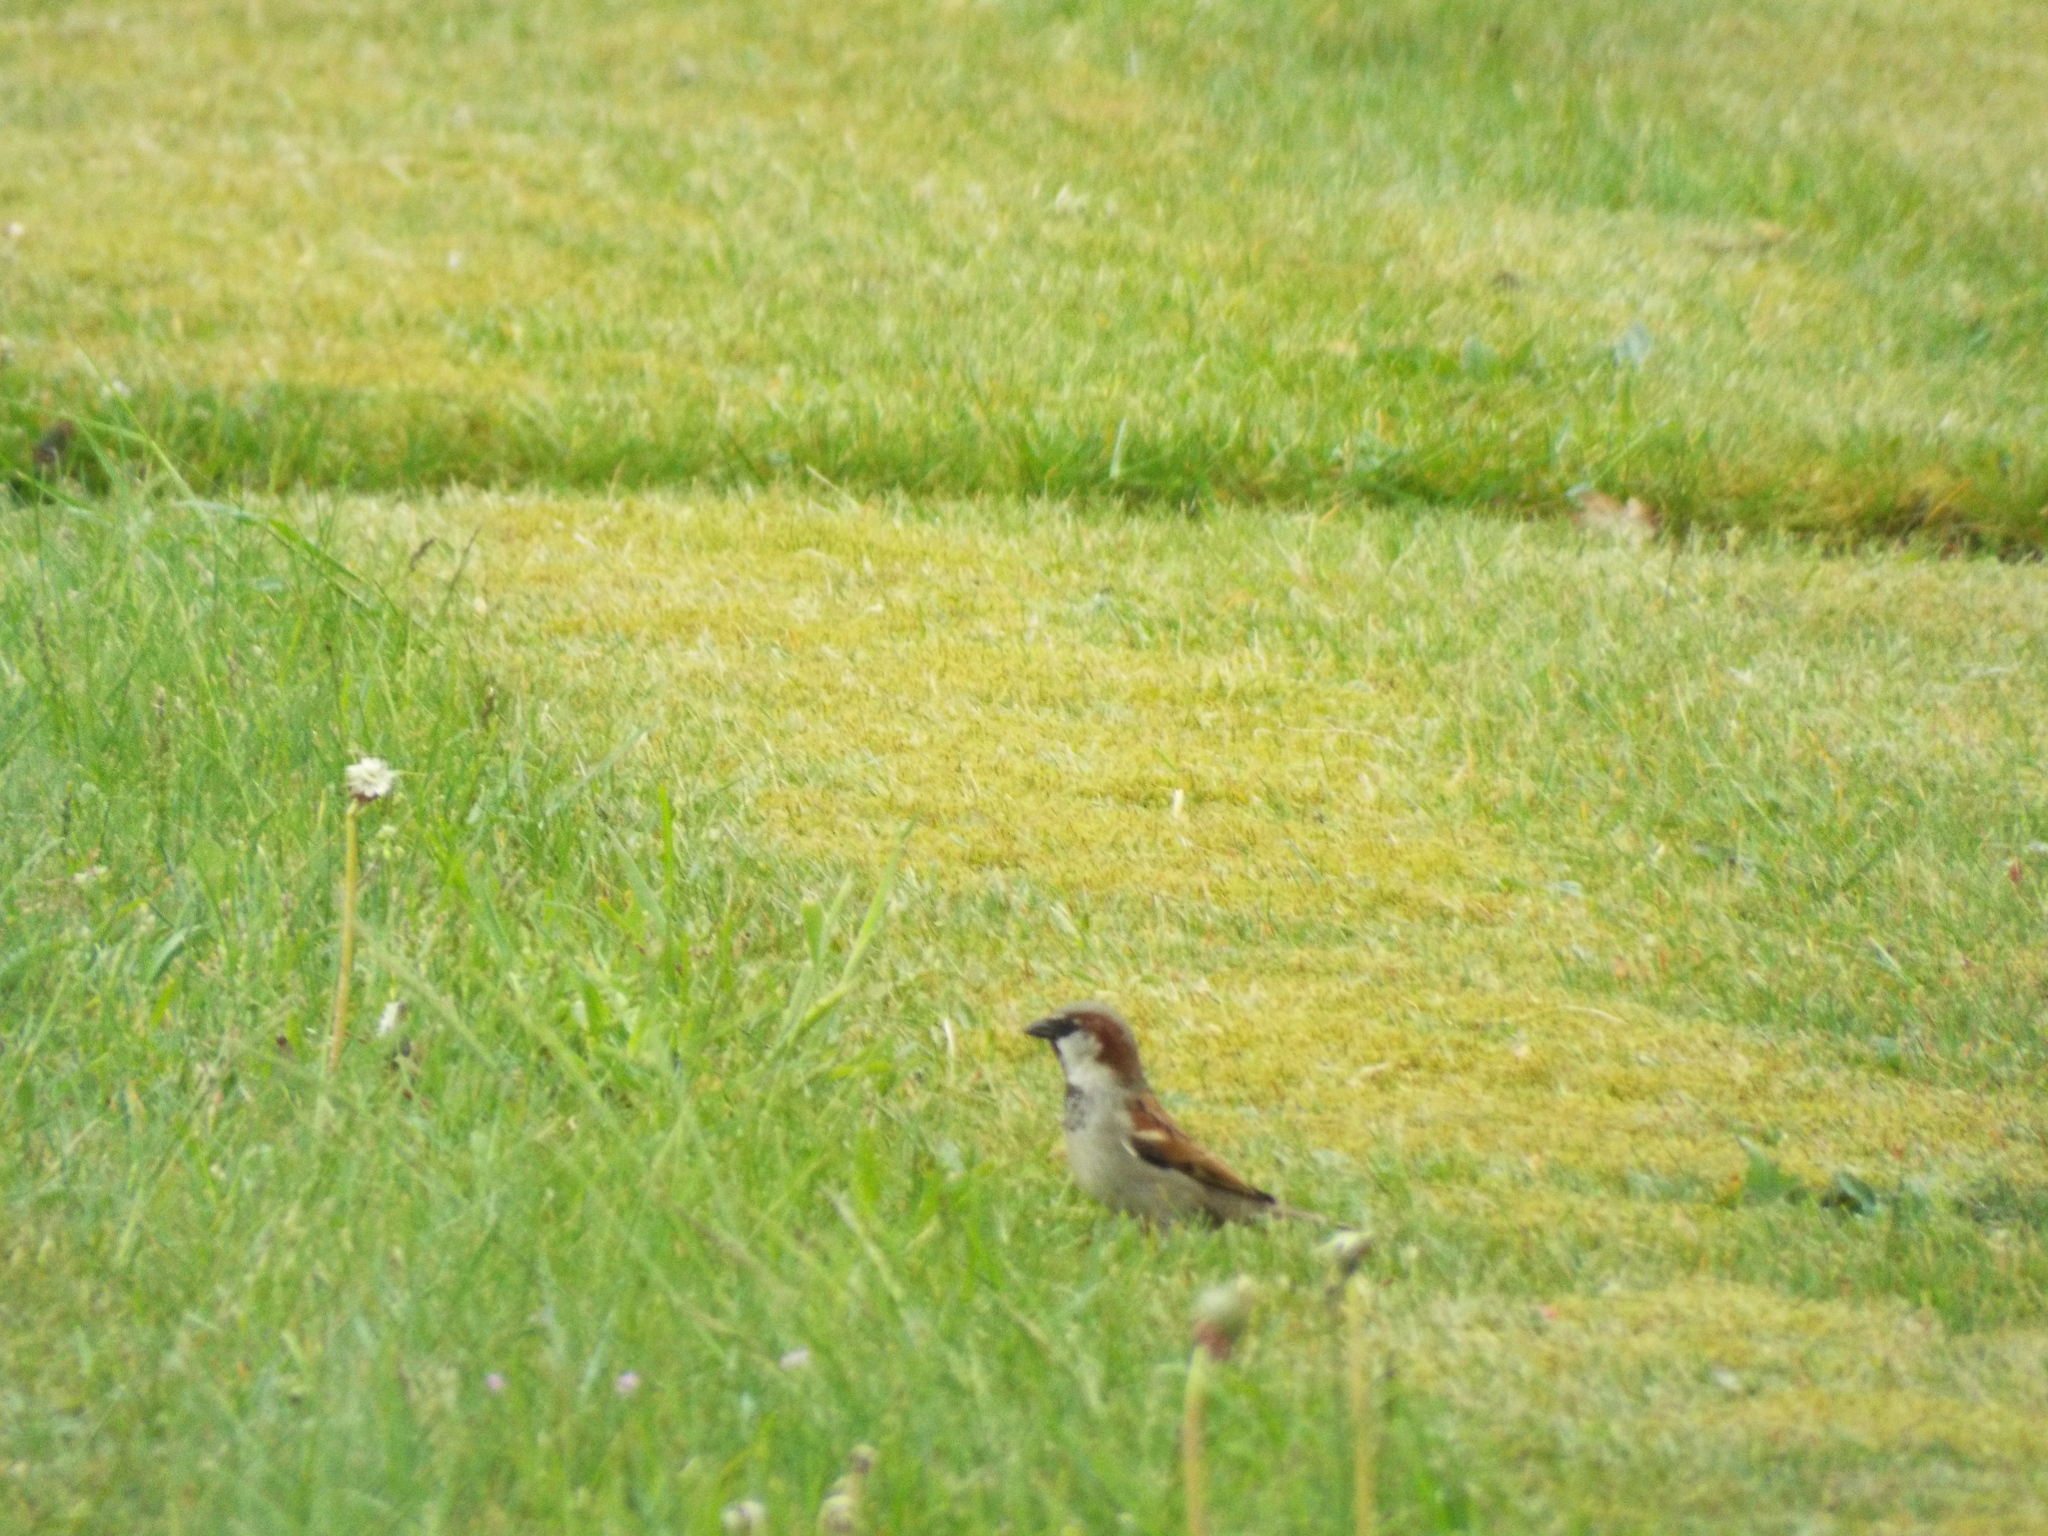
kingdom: Animalia
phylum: Chordata
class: Aves
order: Passeriformes
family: Passeridae
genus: Passer
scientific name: Passer domesticus
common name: House sparrow
